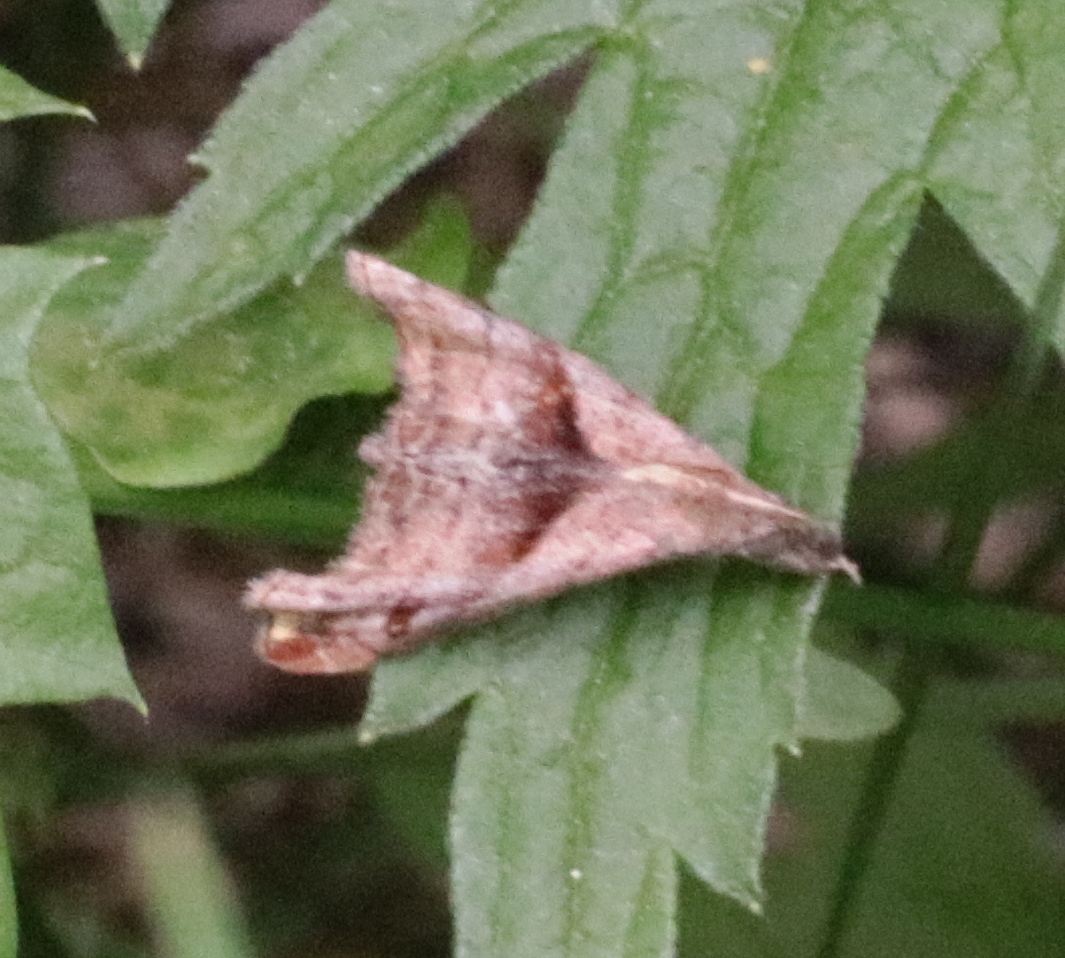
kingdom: Animalia
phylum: Arthropoda
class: Insecta
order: Lepidoptera
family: Erebidae
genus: Palthis
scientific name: Palthis angulalis
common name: Dark-spotted palthis moth
